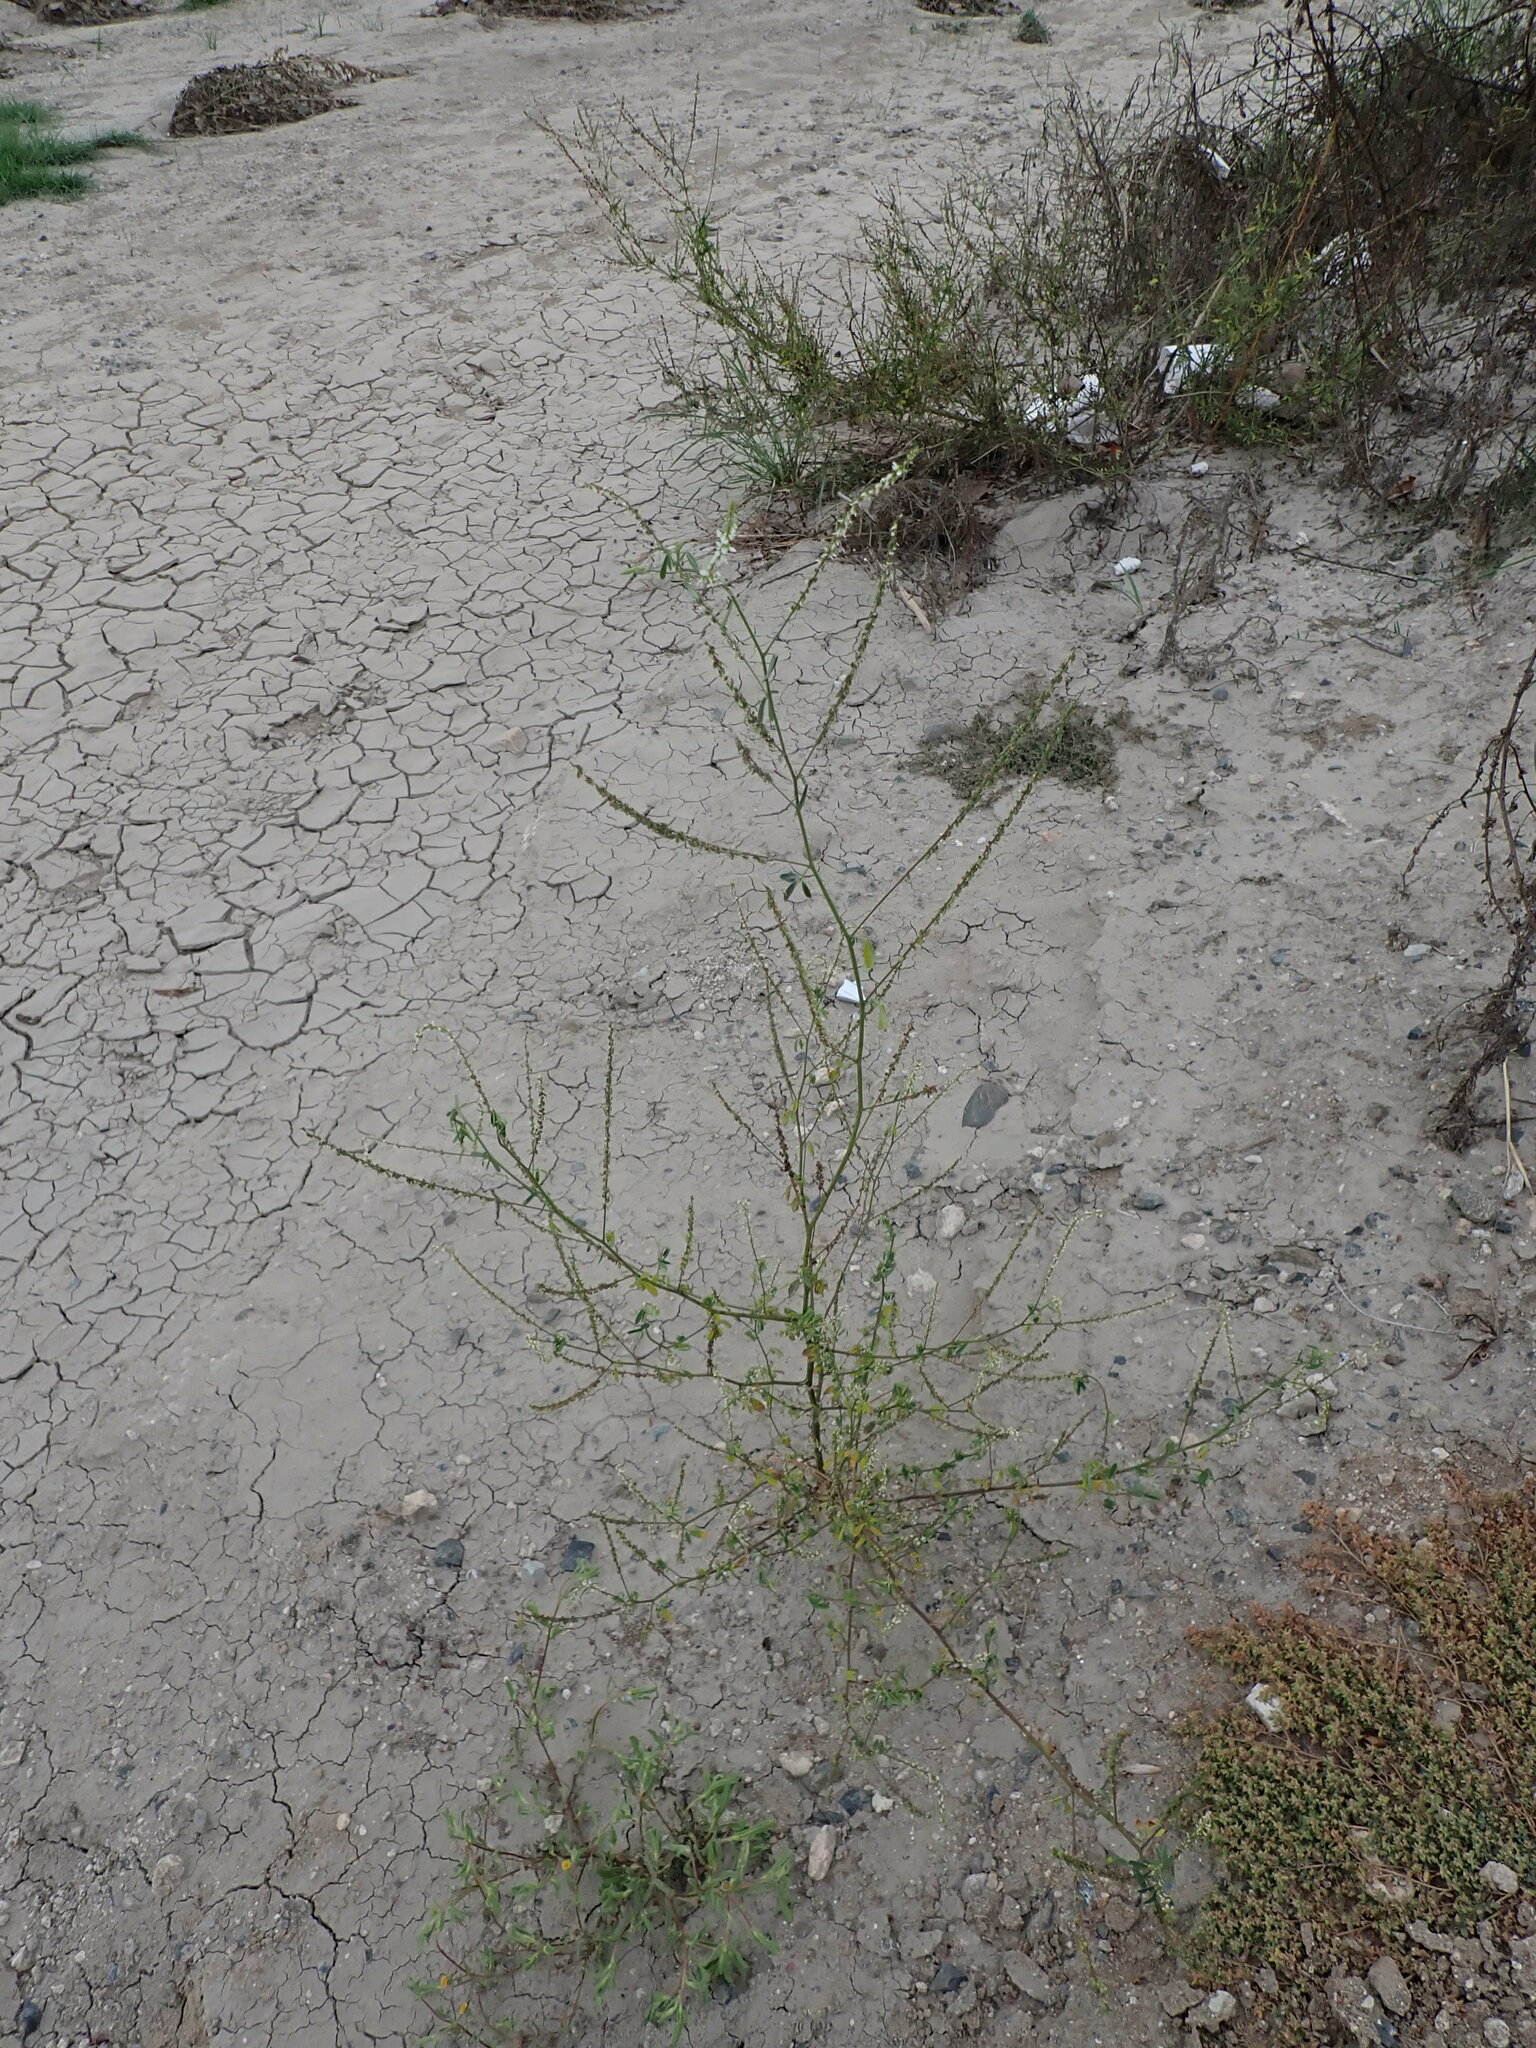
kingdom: Plantae
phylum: Tracheophyta
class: Magnoliopsida
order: Fabales
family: Fabaceae
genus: Melilotus
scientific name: Melilotus albus
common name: White melilot
